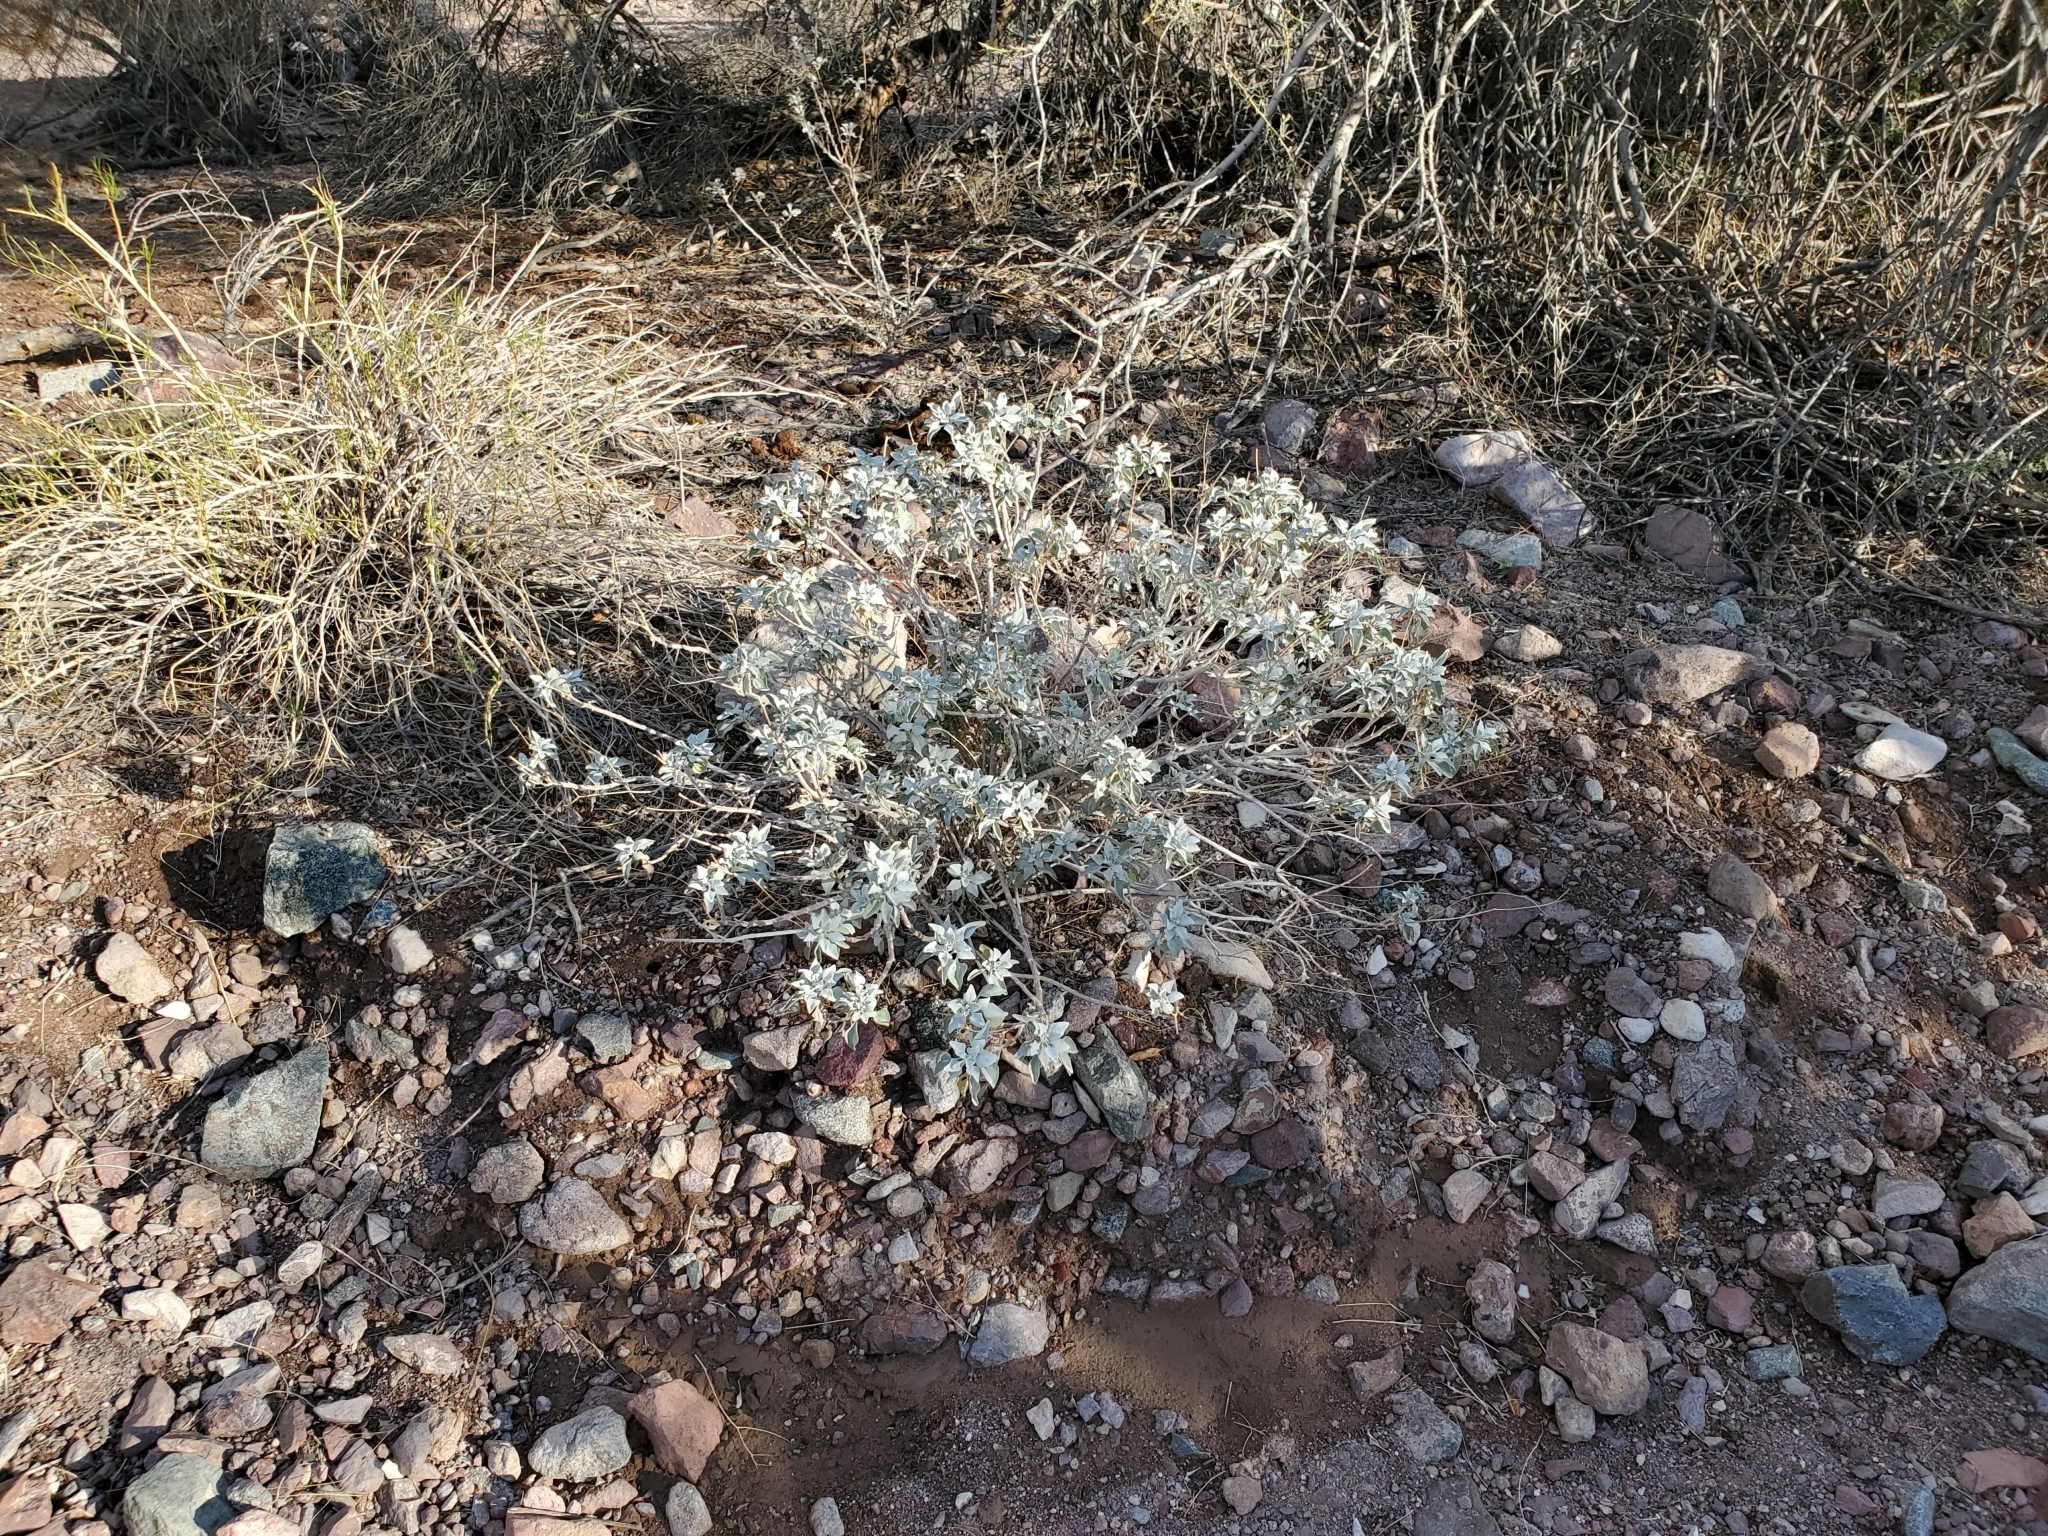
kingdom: Plantae
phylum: Tracheophyta
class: Magnoliopsida
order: Asterales
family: Asteraceae
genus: Encelia
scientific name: Encelia farinosa
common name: Brittlebush
